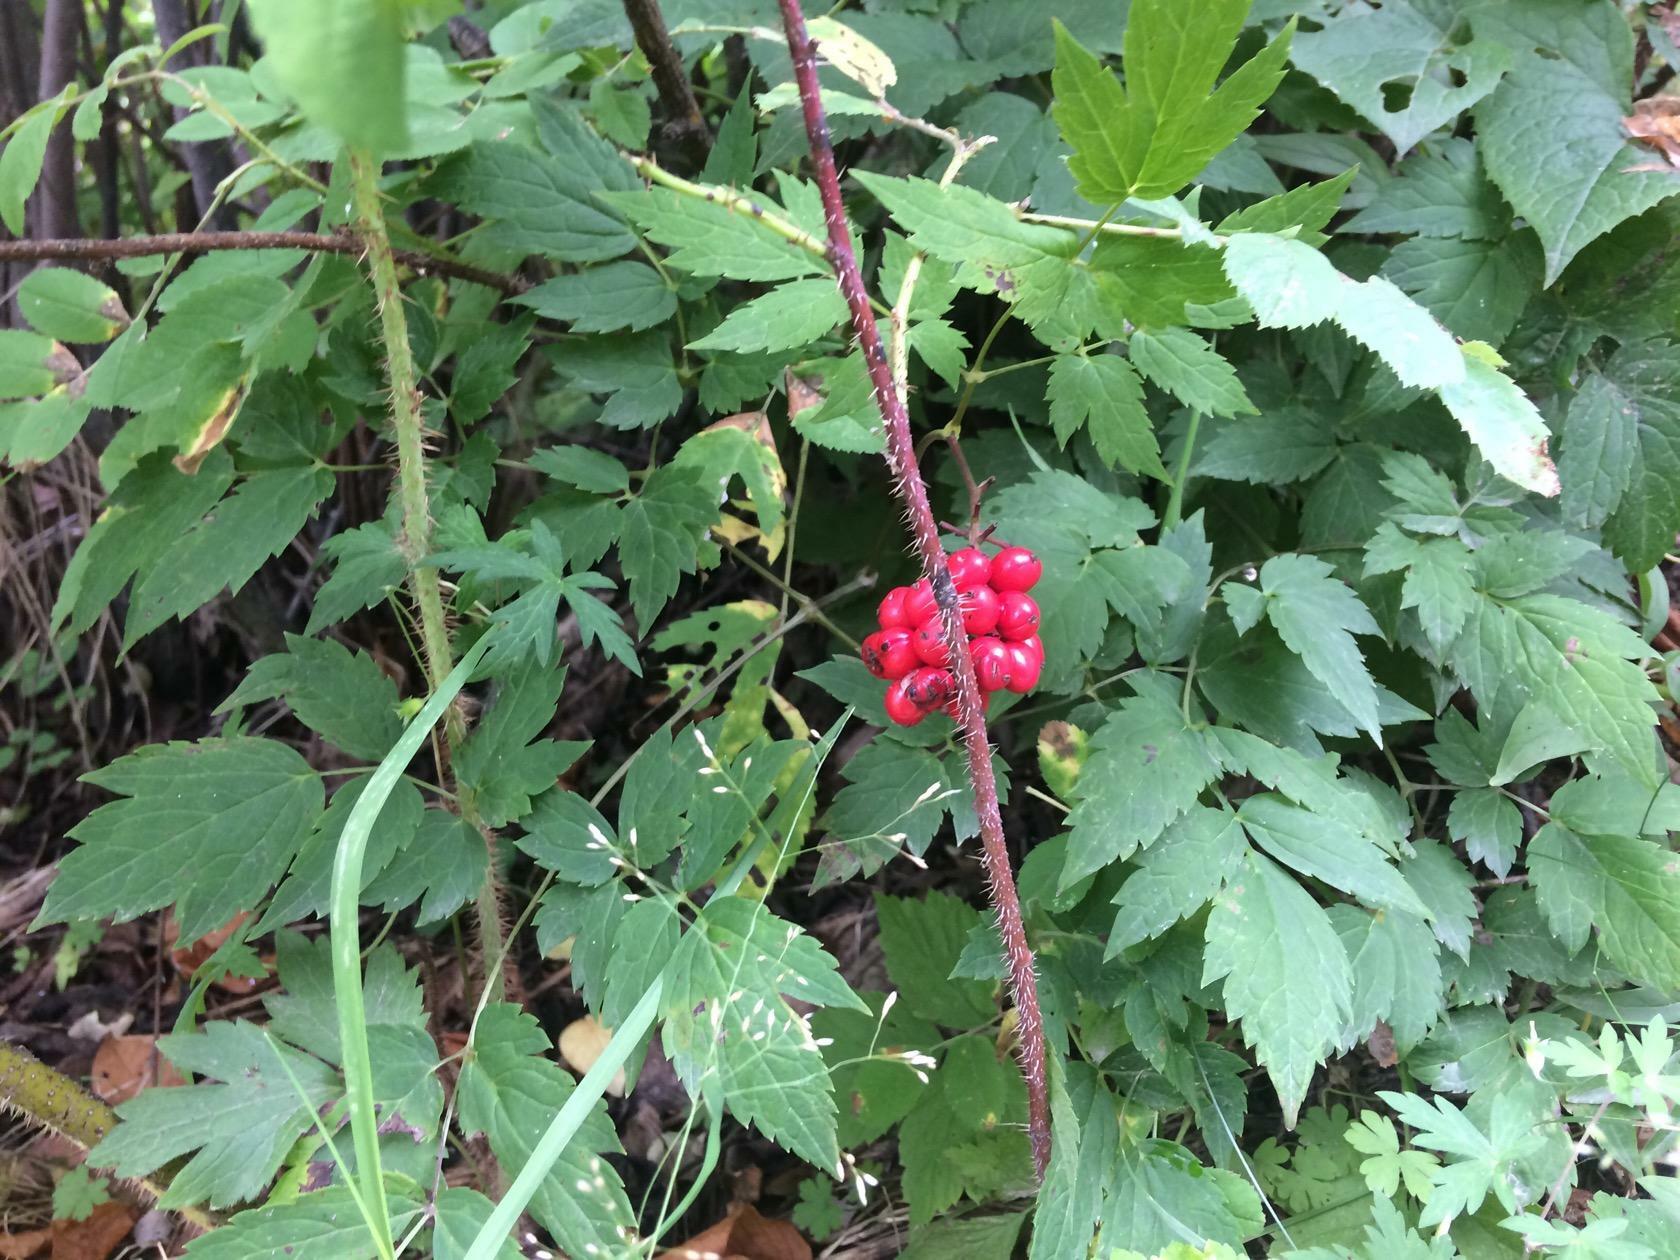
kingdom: Plantae
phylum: Tracheophyta
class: Magnoliopsida
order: Ranunculales
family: Ranunculaceae
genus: Actaea
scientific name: Actaea erythrocarpa
